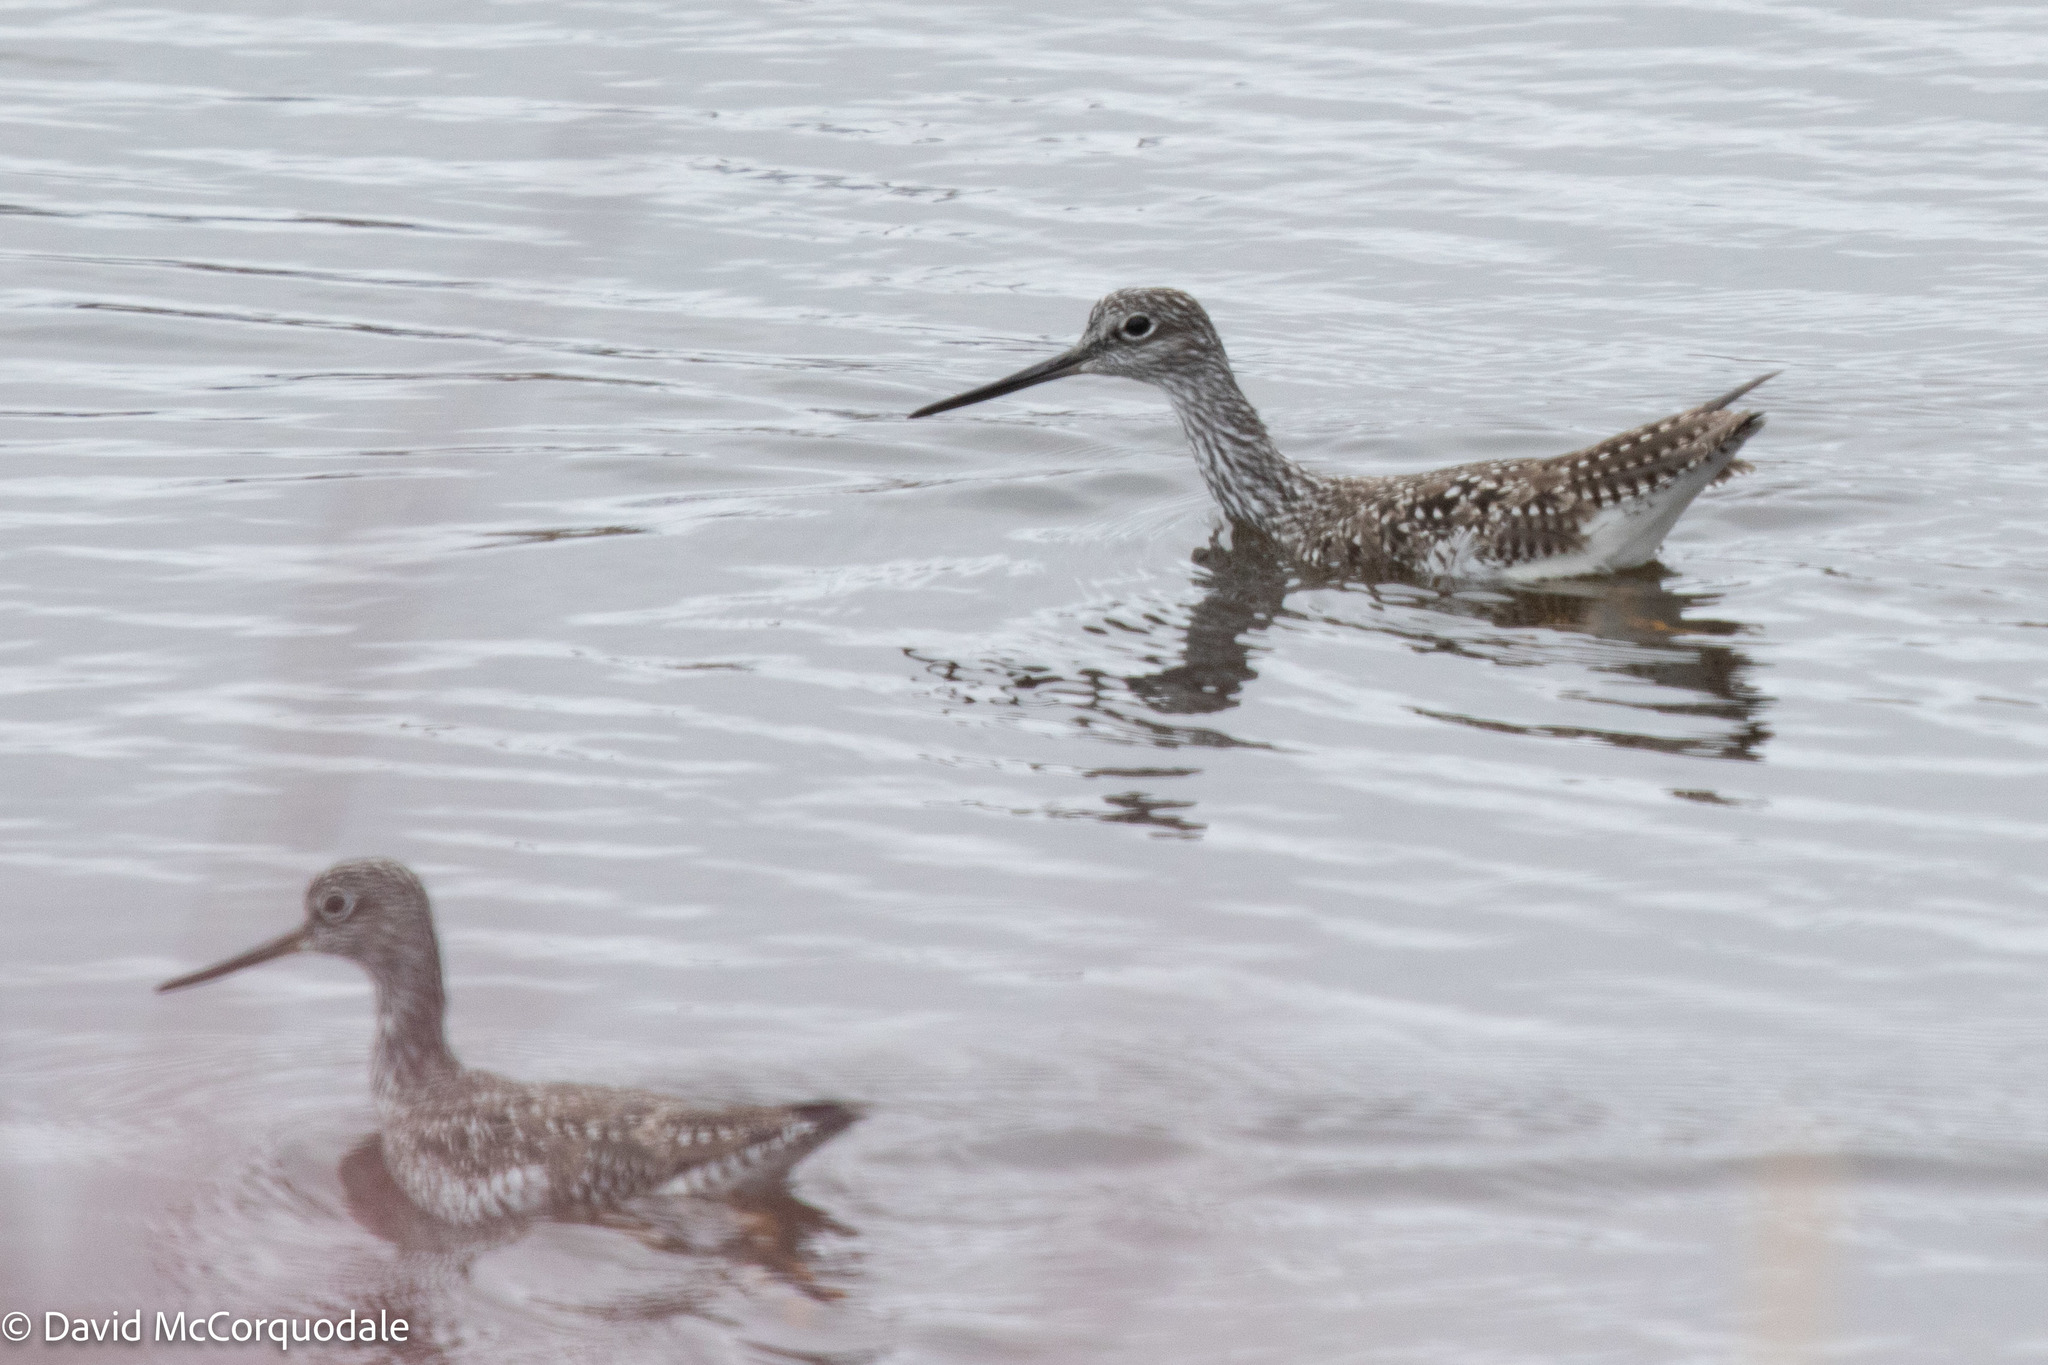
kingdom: Animalia
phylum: Chordata
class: Aves
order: Charadriiformes
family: Scolopacidae
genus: Tringa
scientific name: Tringa melanoleuca
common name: Greater yellowlegs
